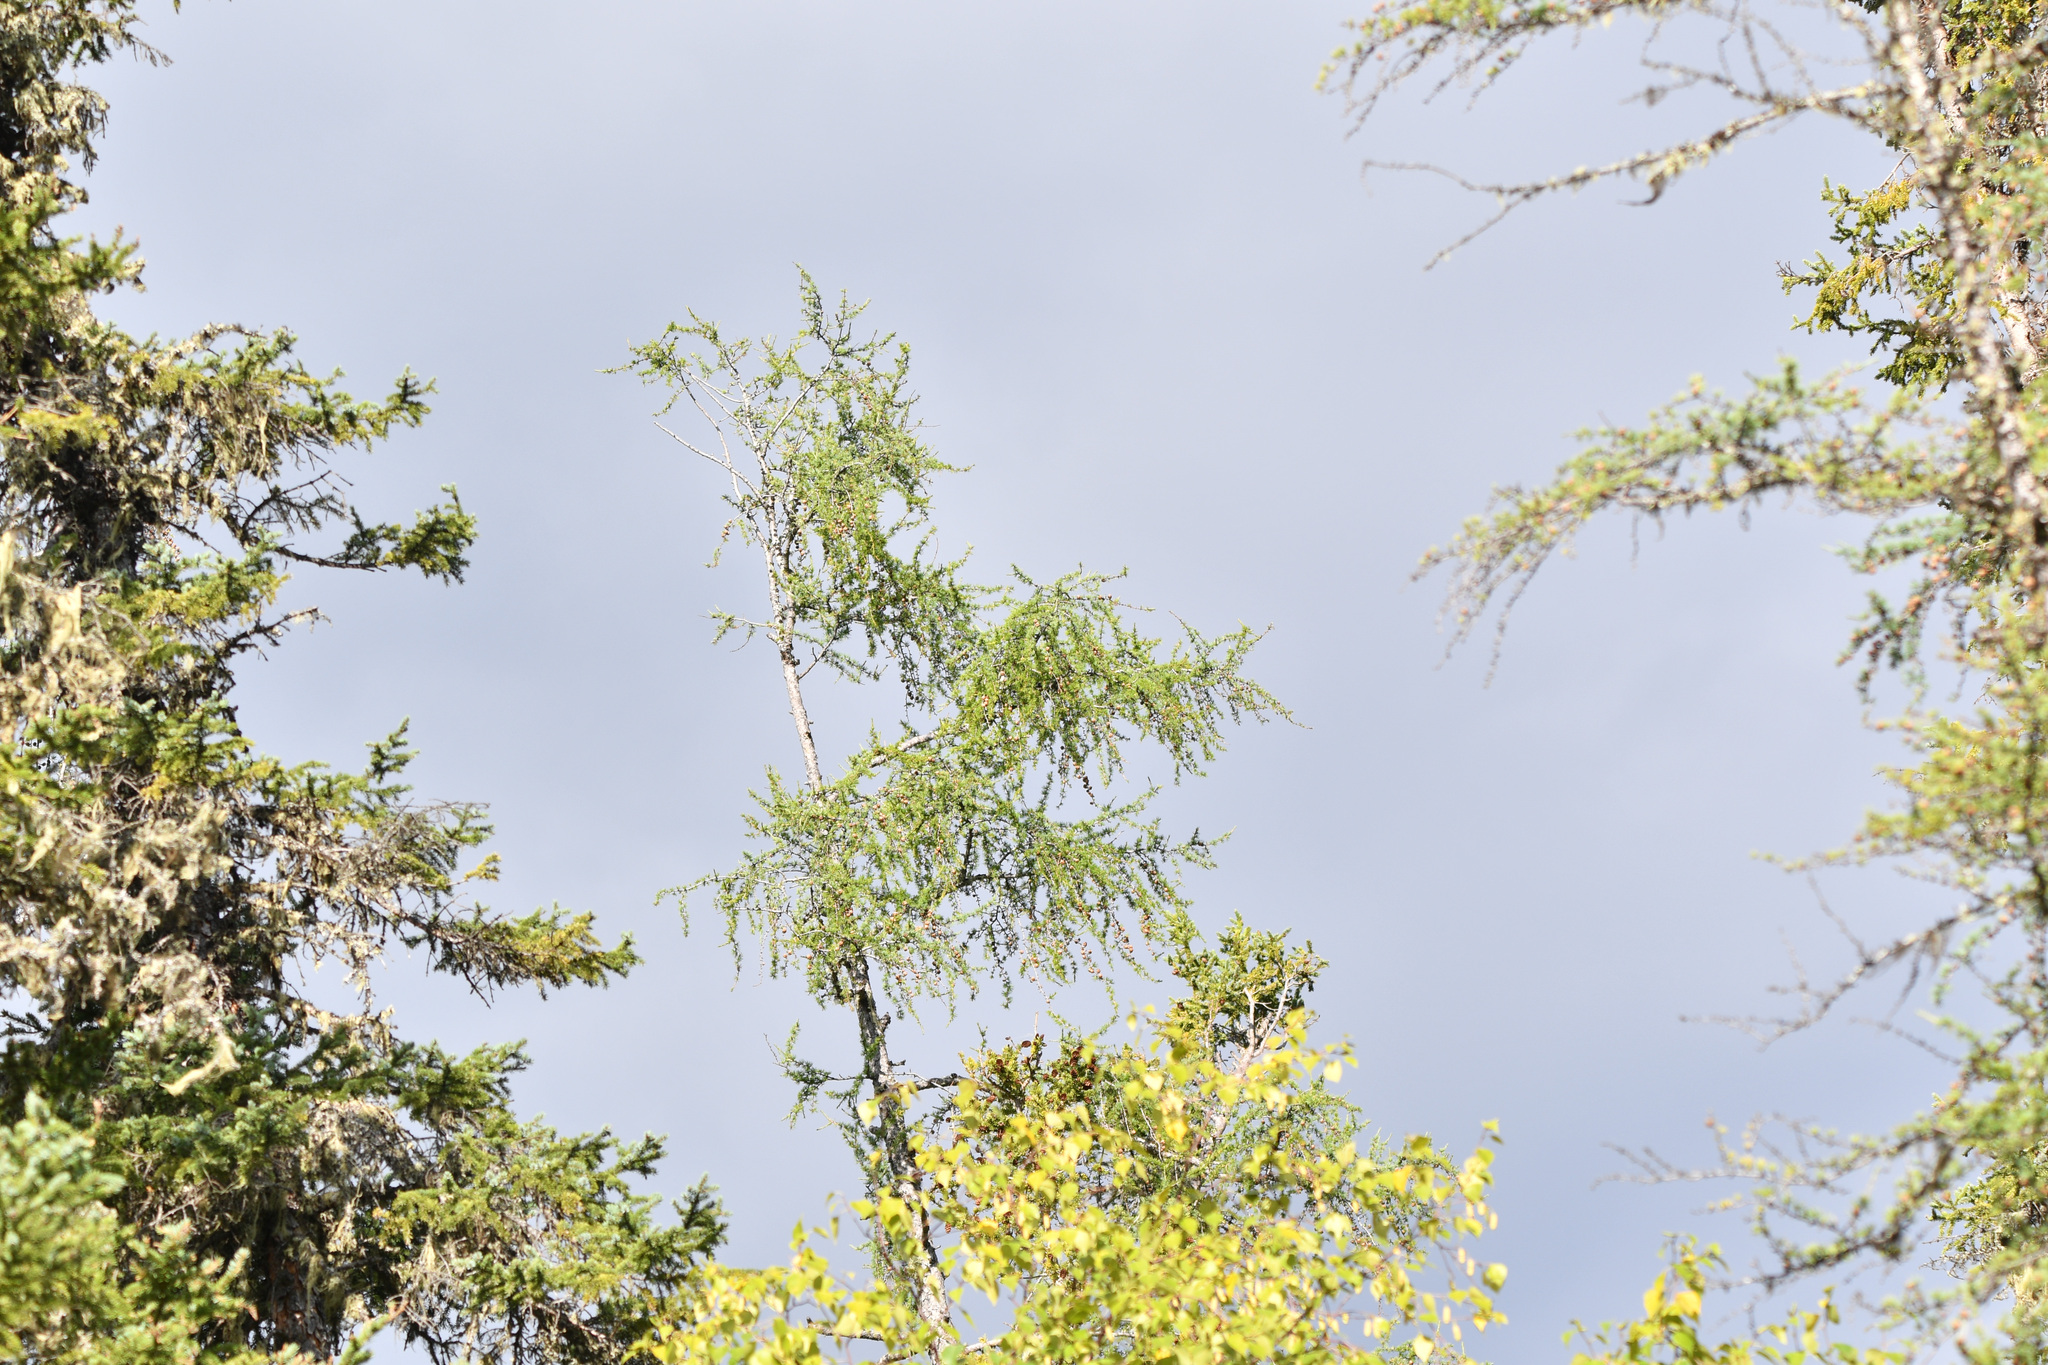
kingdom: Plantae
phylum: Tracheophyta
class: Pinopsida
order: Pinales
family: Pinaceae
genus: Larix
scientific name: Larix laricina
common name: American larch
